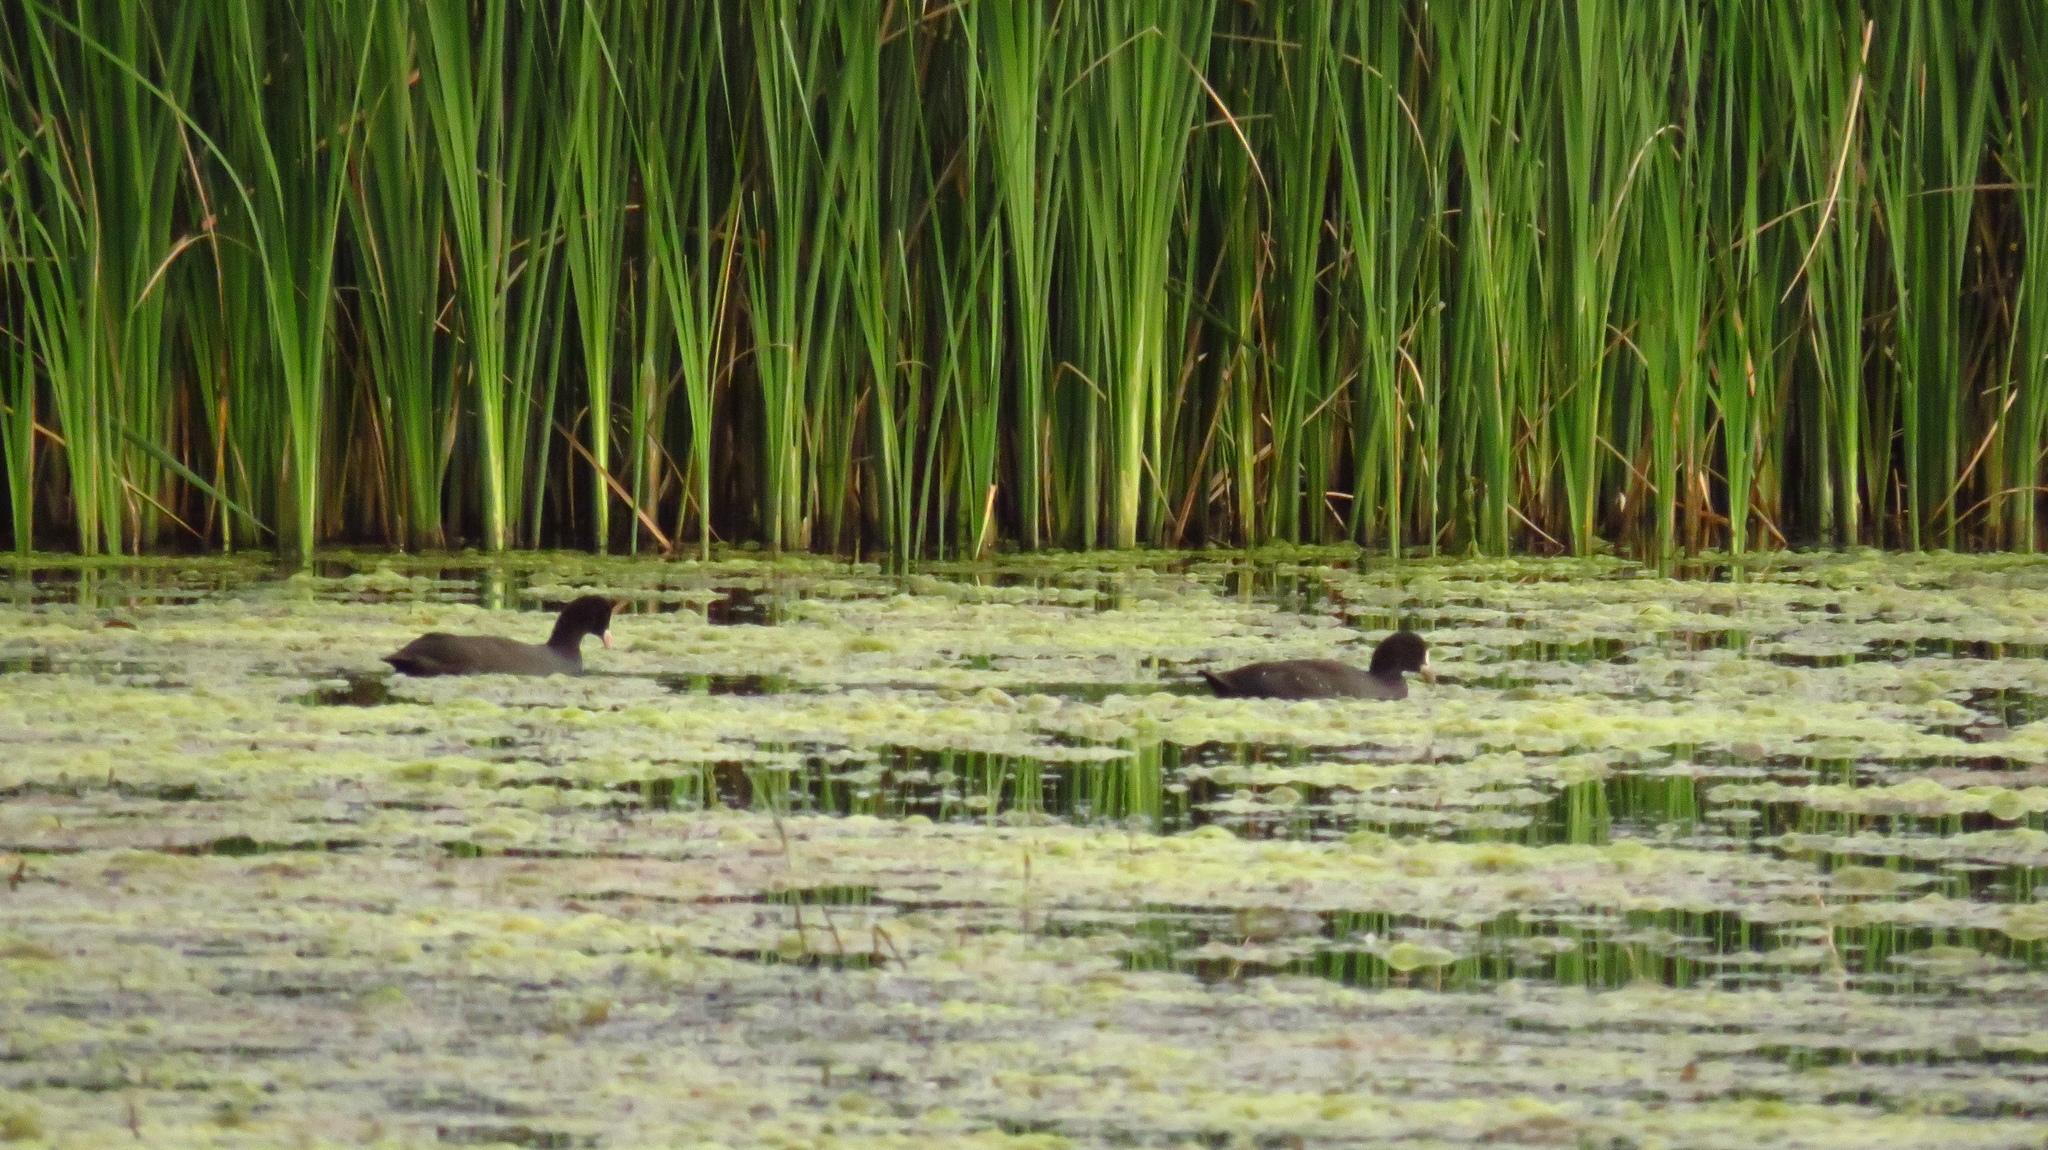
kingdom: Animalia
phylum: Chordata
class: Aves
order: Gruiformes
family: Rallidae
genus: Fulica
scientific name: Fulica atra
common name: Eurasian coot
